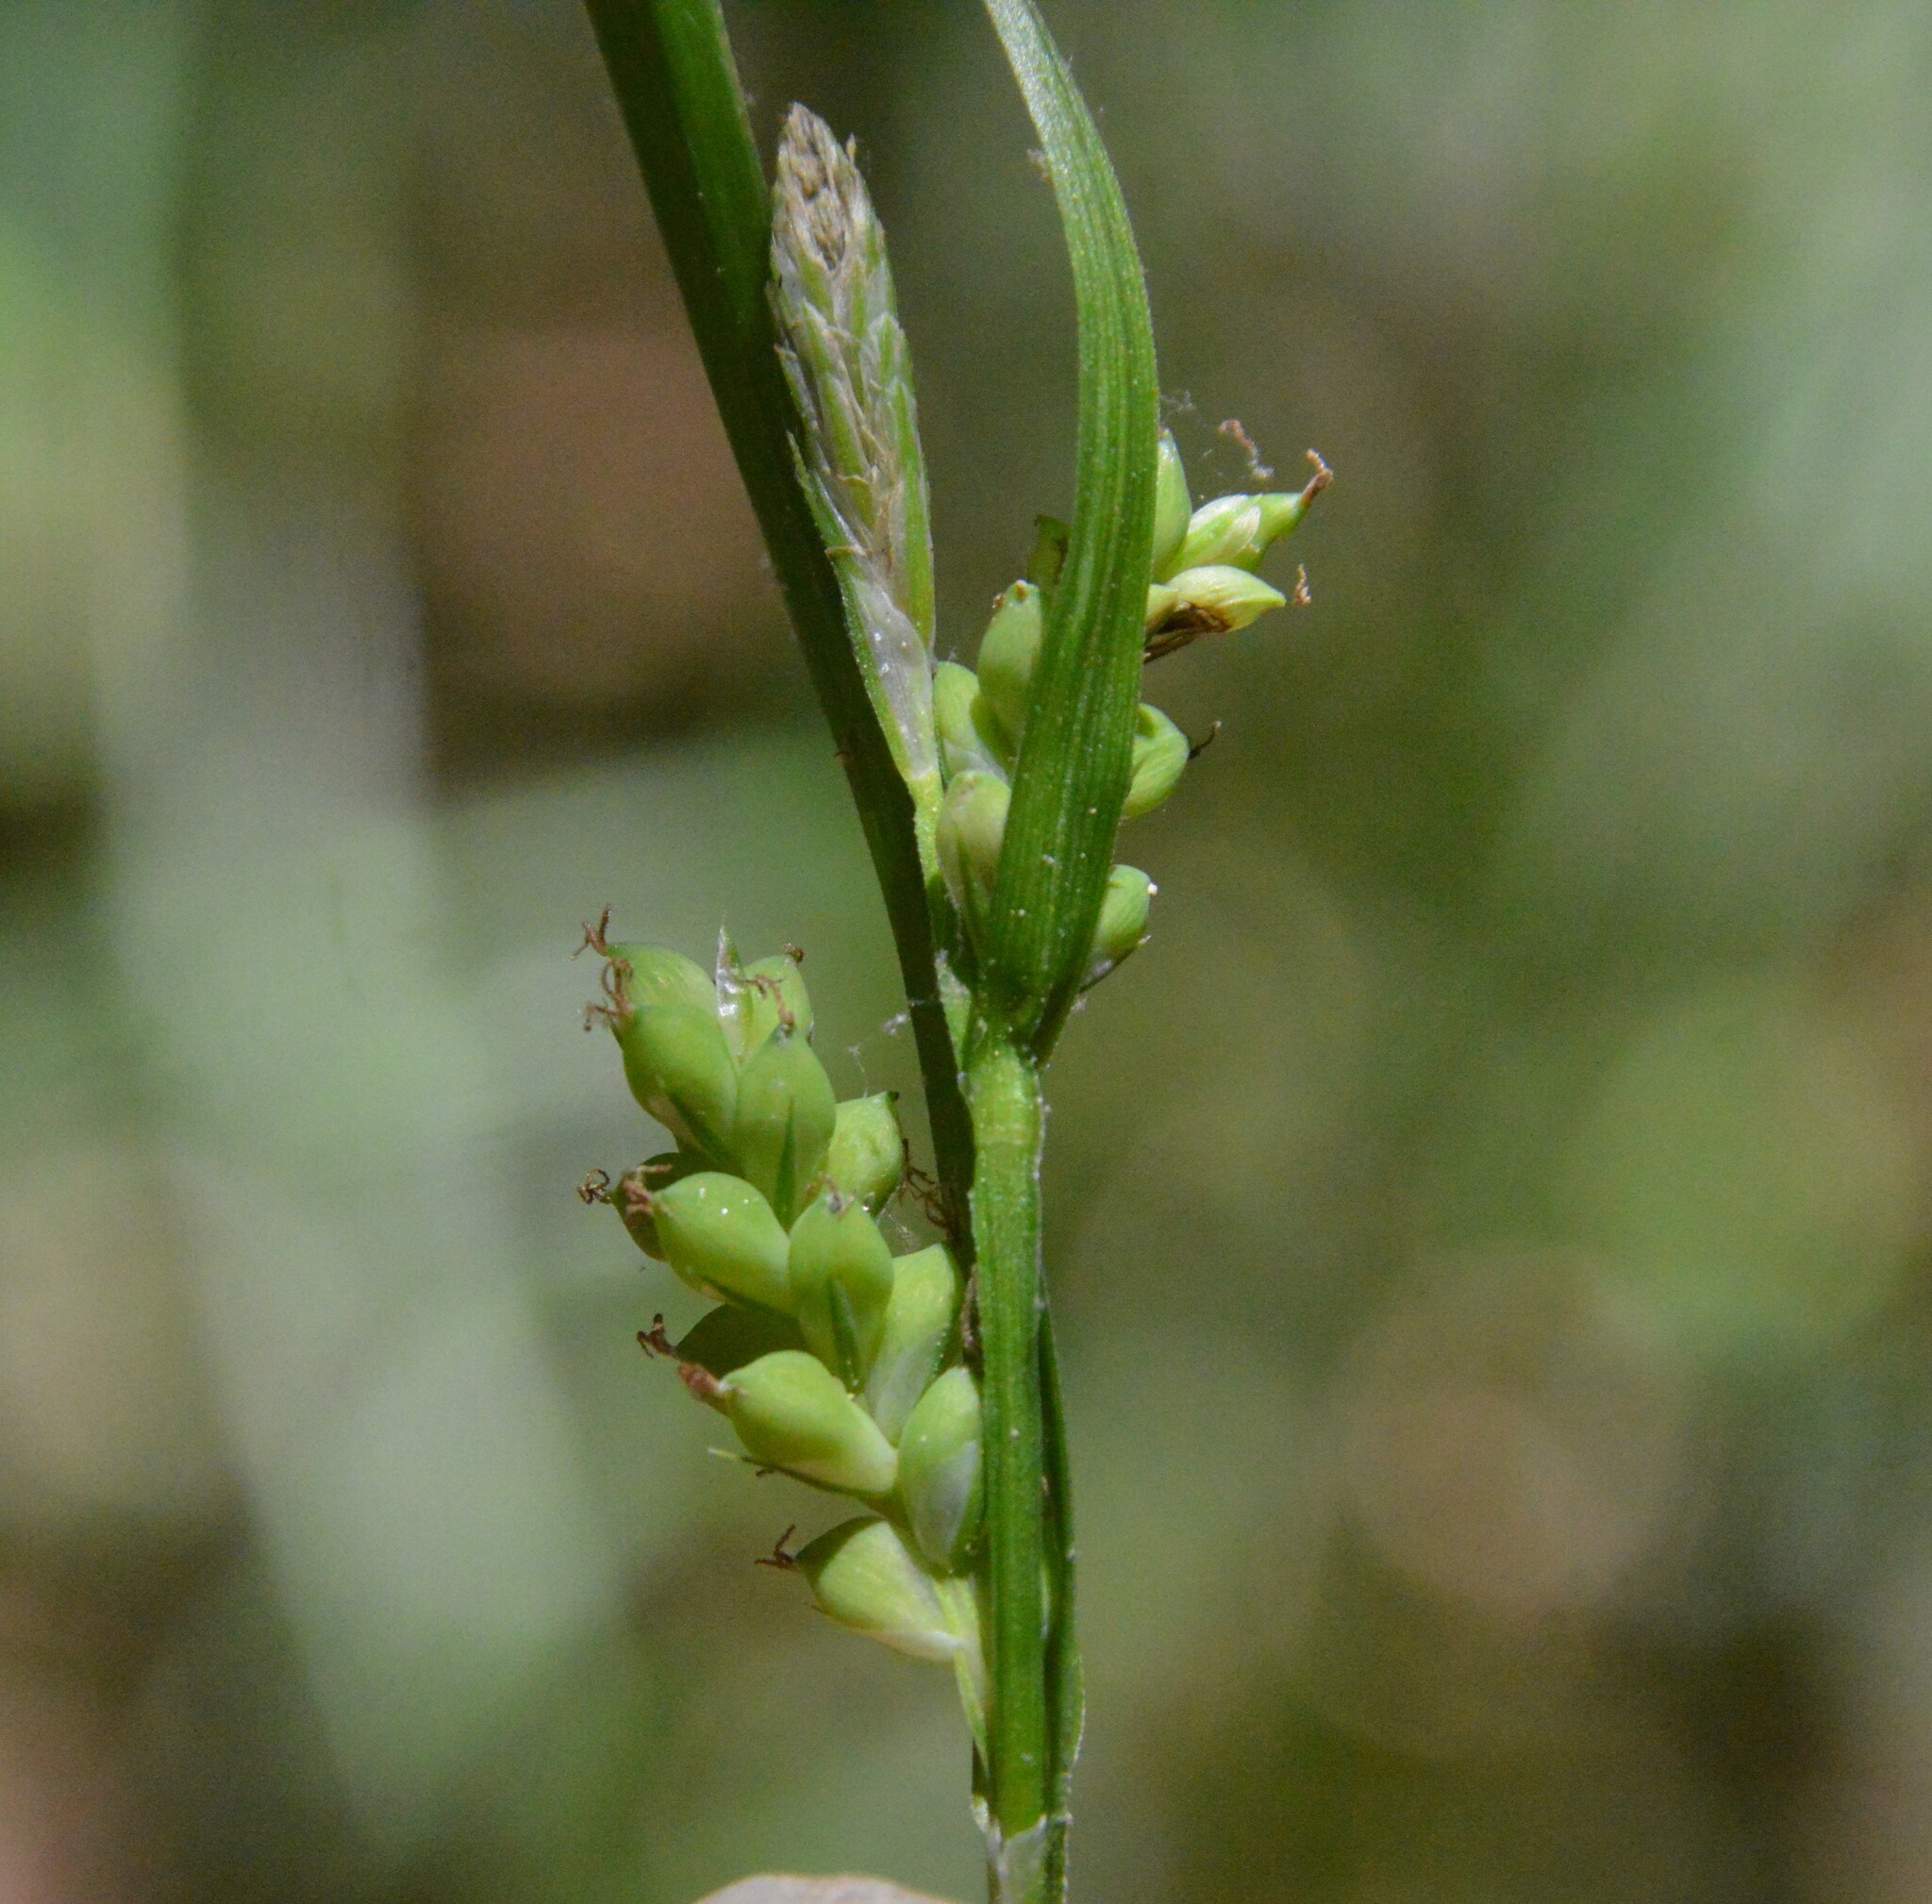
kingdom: Plantae
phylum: Tracheophyta
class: Liliopsida
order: Poales
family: Cyperaceae
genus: Carex
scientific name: Carex blanda
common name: Bland sedge
